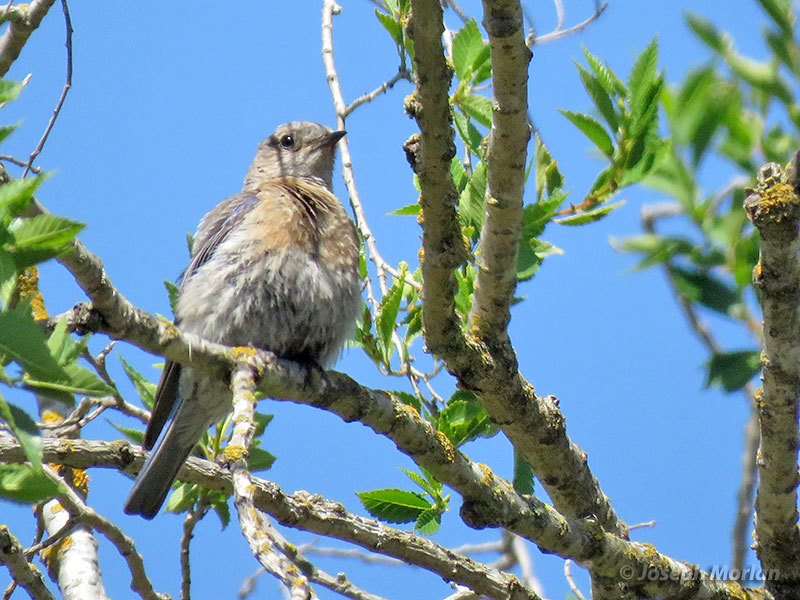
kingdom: Animalia
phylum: Chordata
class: Aves
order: Passeriformes
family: Turdidae
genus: Sialia
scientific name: Sialia mexicana
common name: Western bluebird
